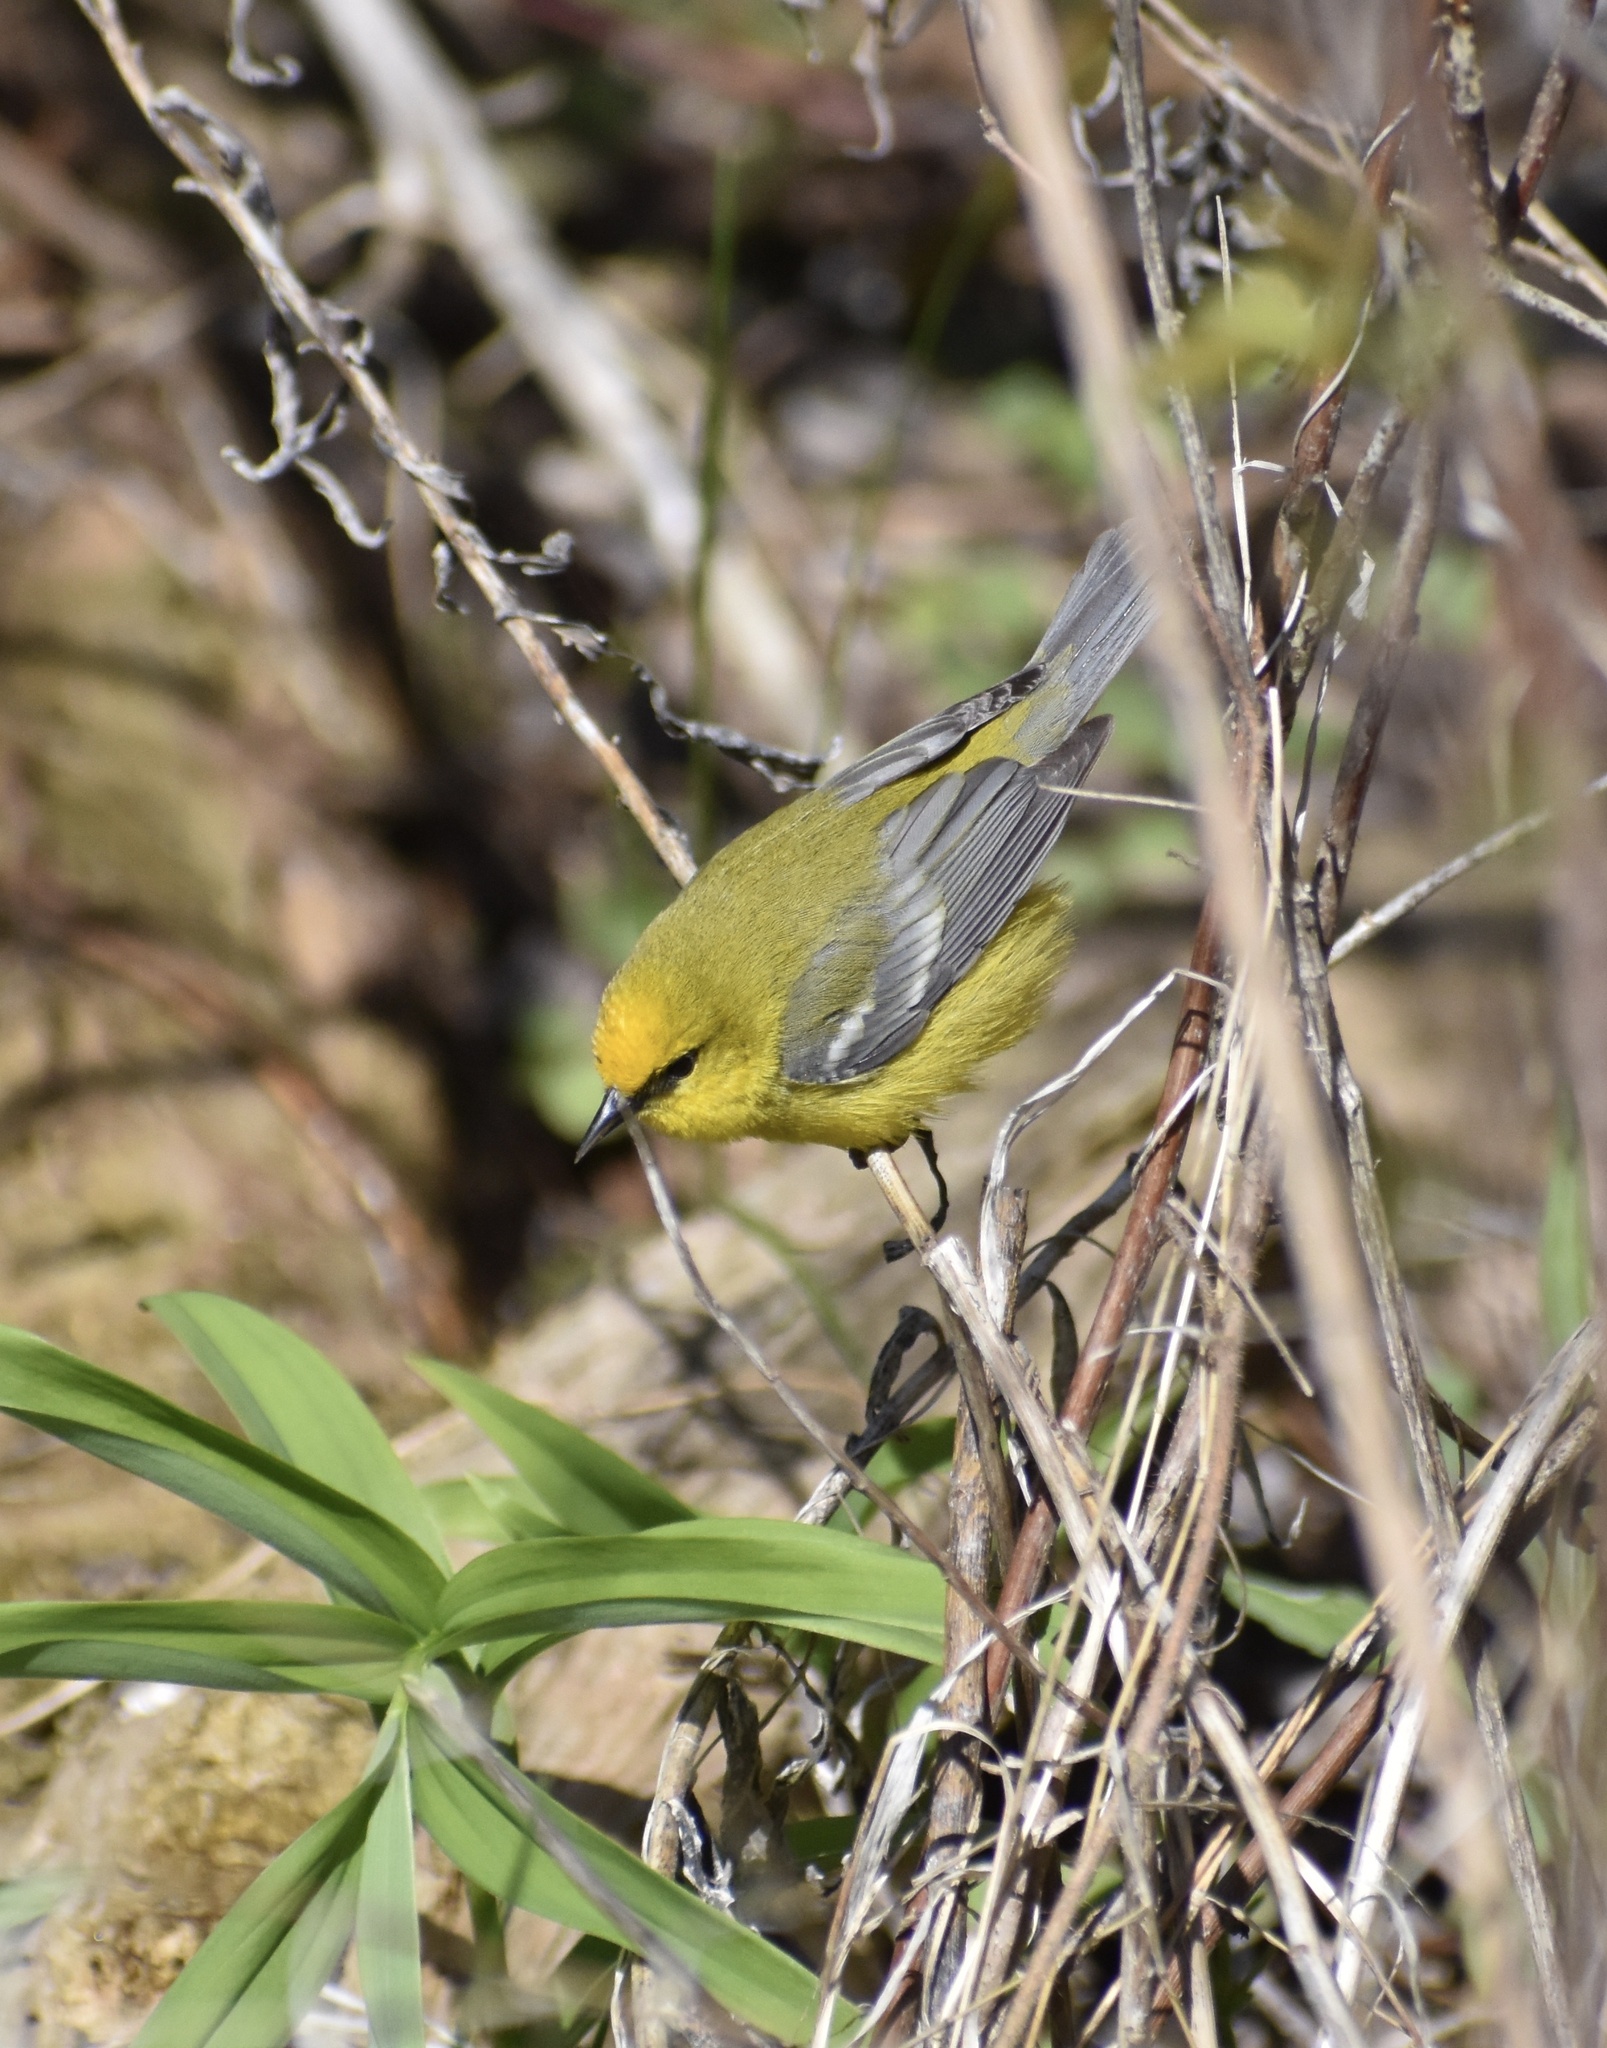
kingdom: Animalia
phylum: Chordata
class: Aves
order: Passeriformes
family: Parulidae
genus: Vermivora
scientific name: Vermivora cyanoptera
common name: Blue-winged warbler
